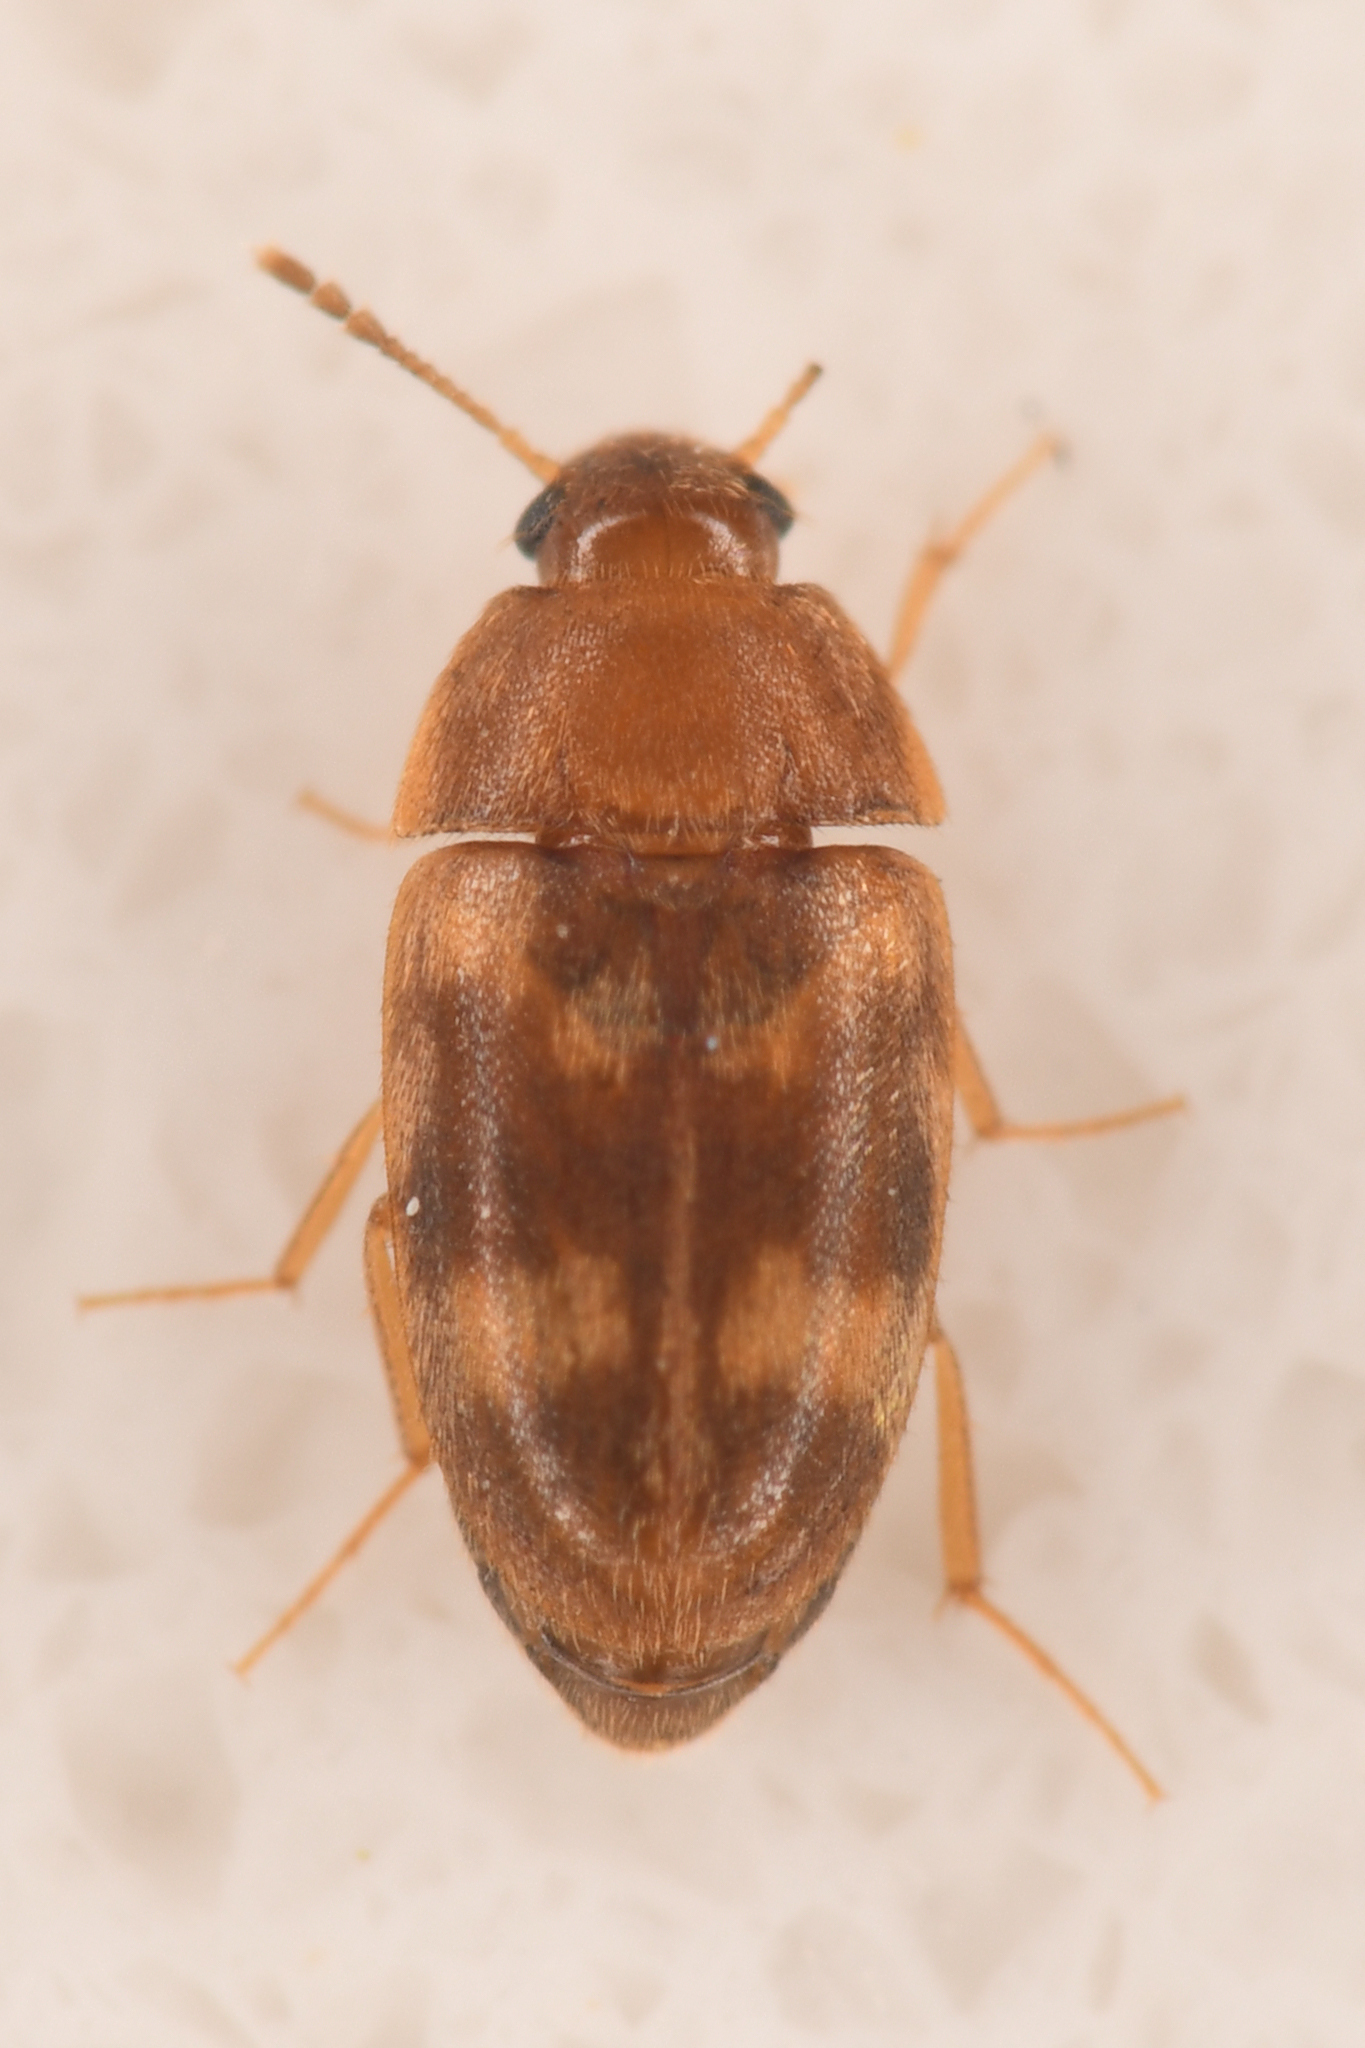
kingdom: Animalia
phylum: Arthropoda
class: Insecta
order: Coleoptera
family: Mycetophagidae
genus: Litargus
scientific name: Litargus balteatus
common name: Stored grain hairy fungus beetle
